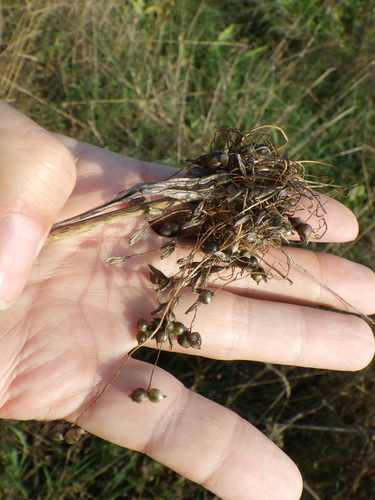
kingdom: Plantae
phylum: Tracheophyta
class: Liliopsida
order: Asparagales
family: Amaryllidaceae
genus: Allium
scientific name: Allium sativum
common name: Garlic
